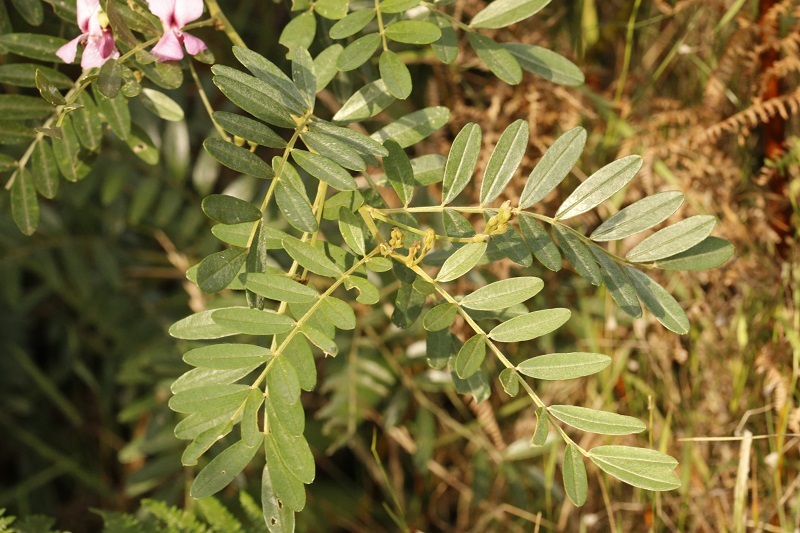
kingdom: Plantae
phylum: Tracheophyta
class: Magnoliopsida
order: Fabales
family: Fabaceae
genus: Virgilia
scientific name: Virgilia divaricata
